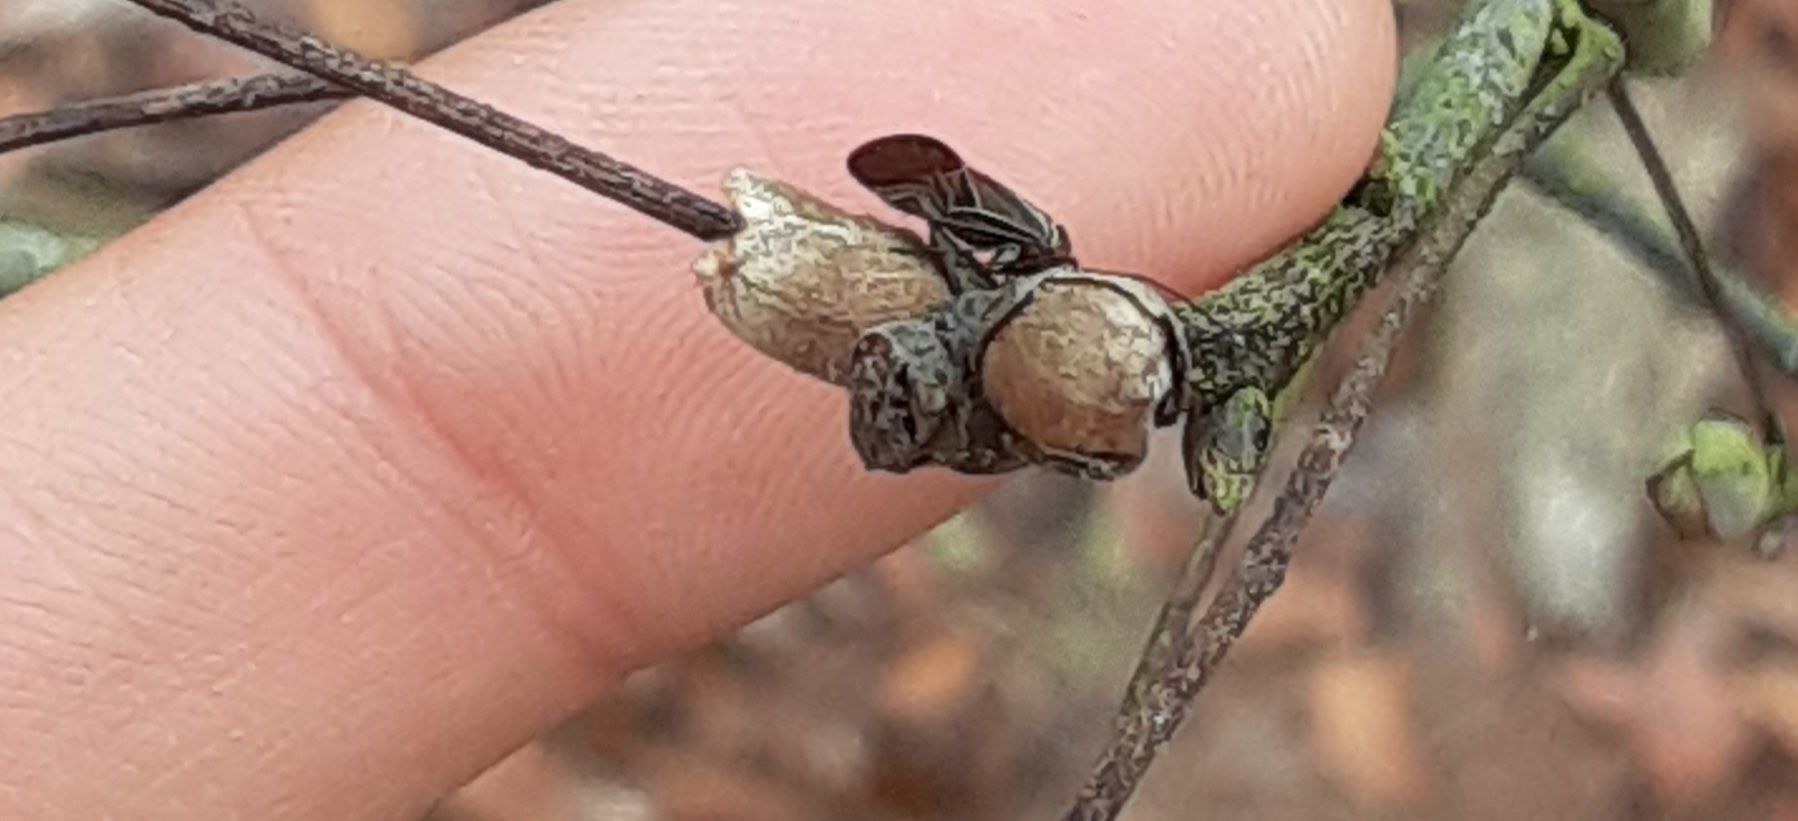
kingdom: Animalia
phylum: Arthropoda
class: Insecta
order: Psocodea
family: Psocidae
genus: Cerastipsocus
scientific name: Cerastipsocus venosus
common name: Tree cattle
